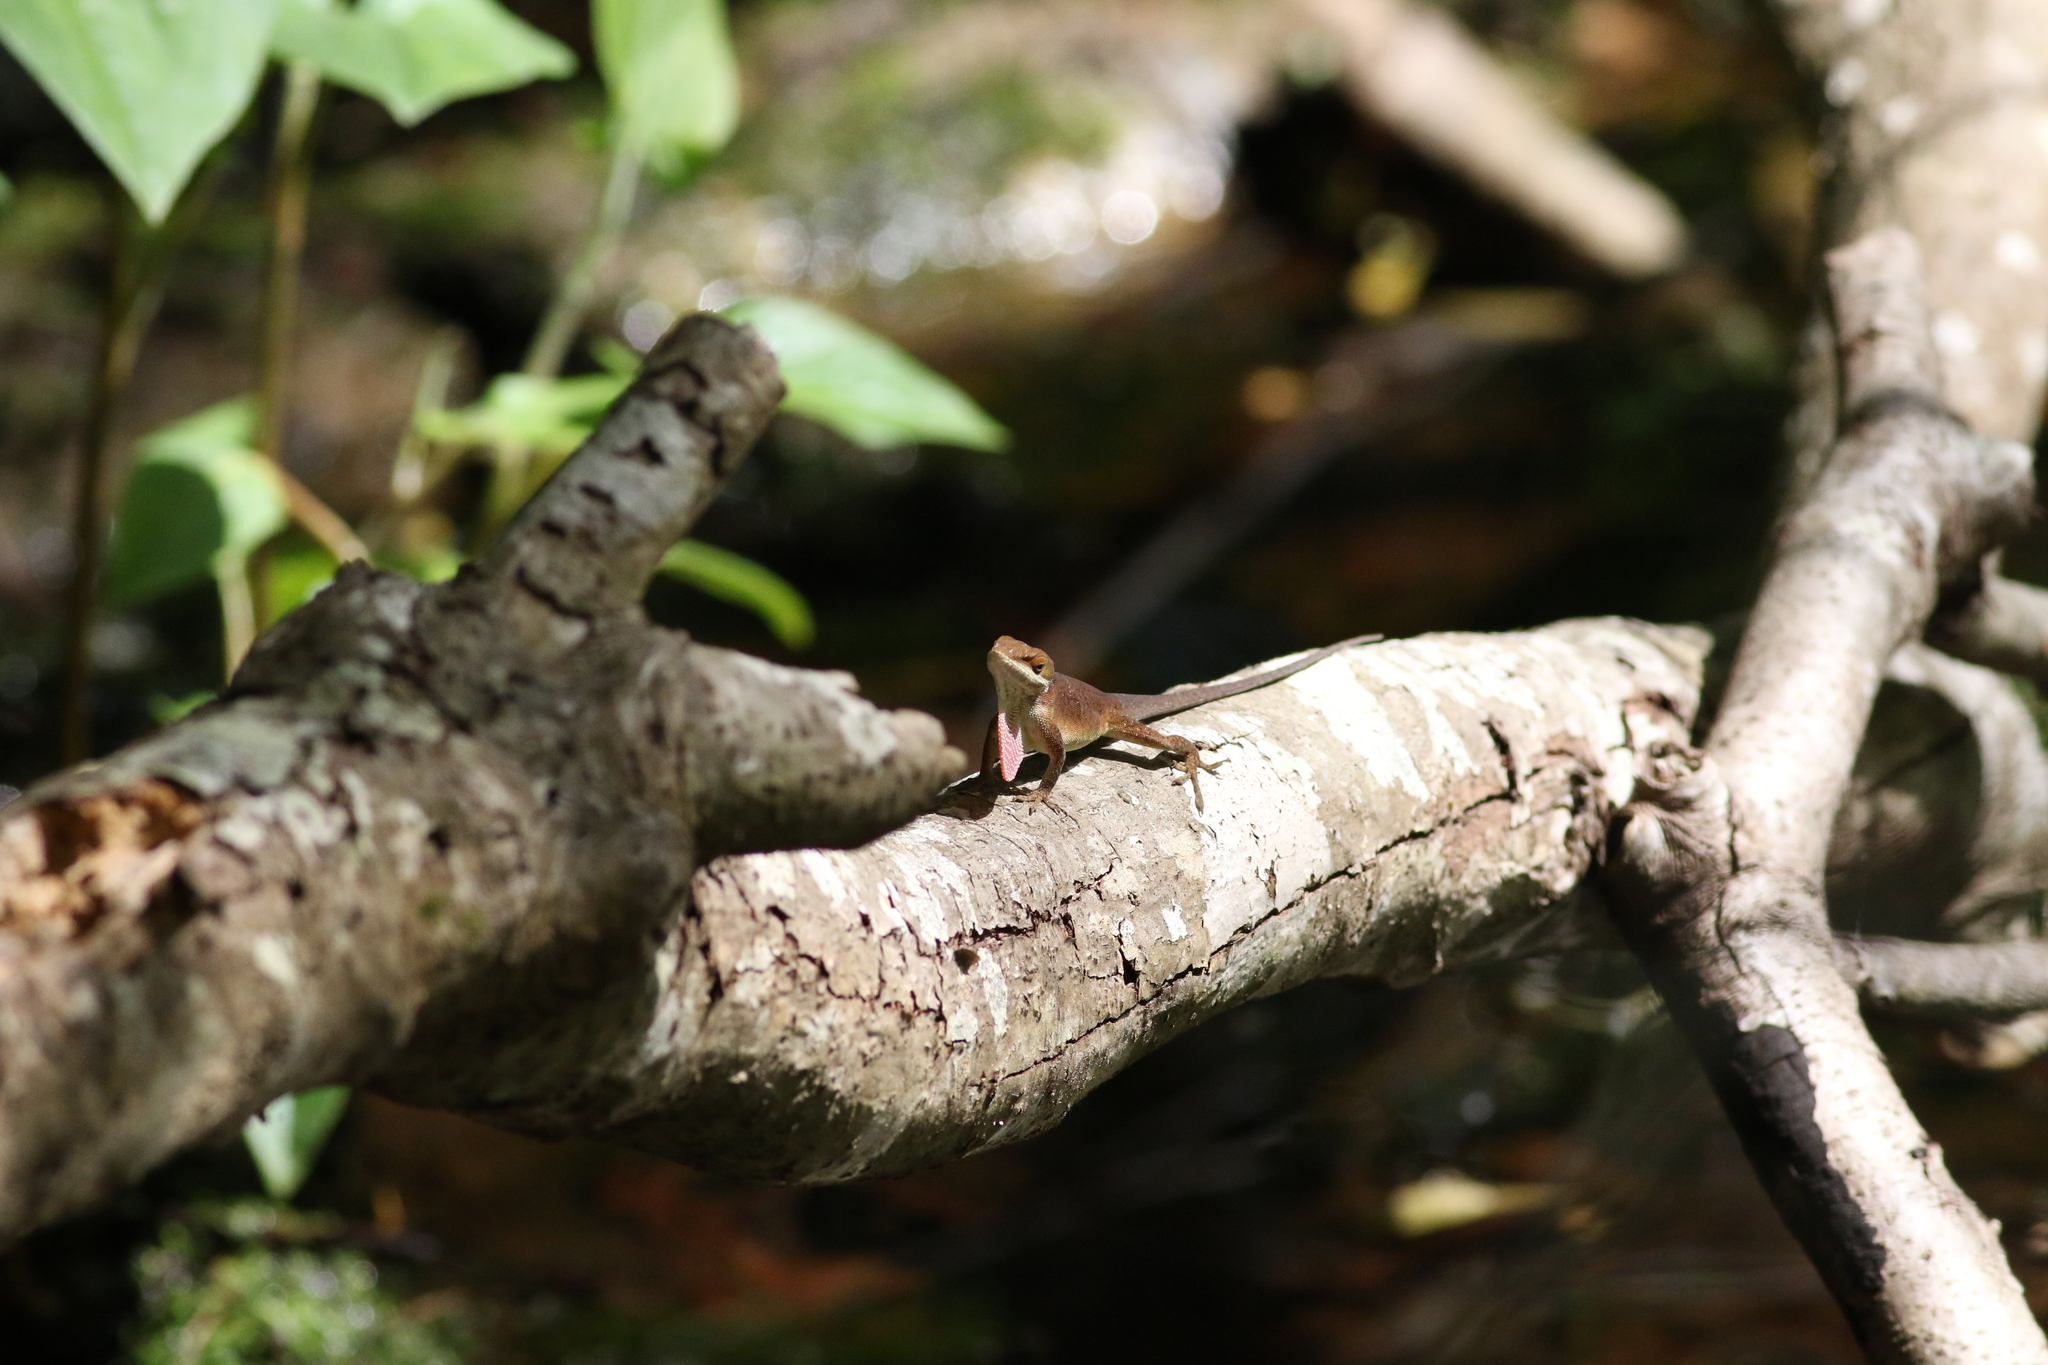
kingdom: Animalia
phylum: Chordata
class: Squamata
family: Dactyloidae
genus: Anolis
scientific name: Anolis carolinensis
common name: Green anole
